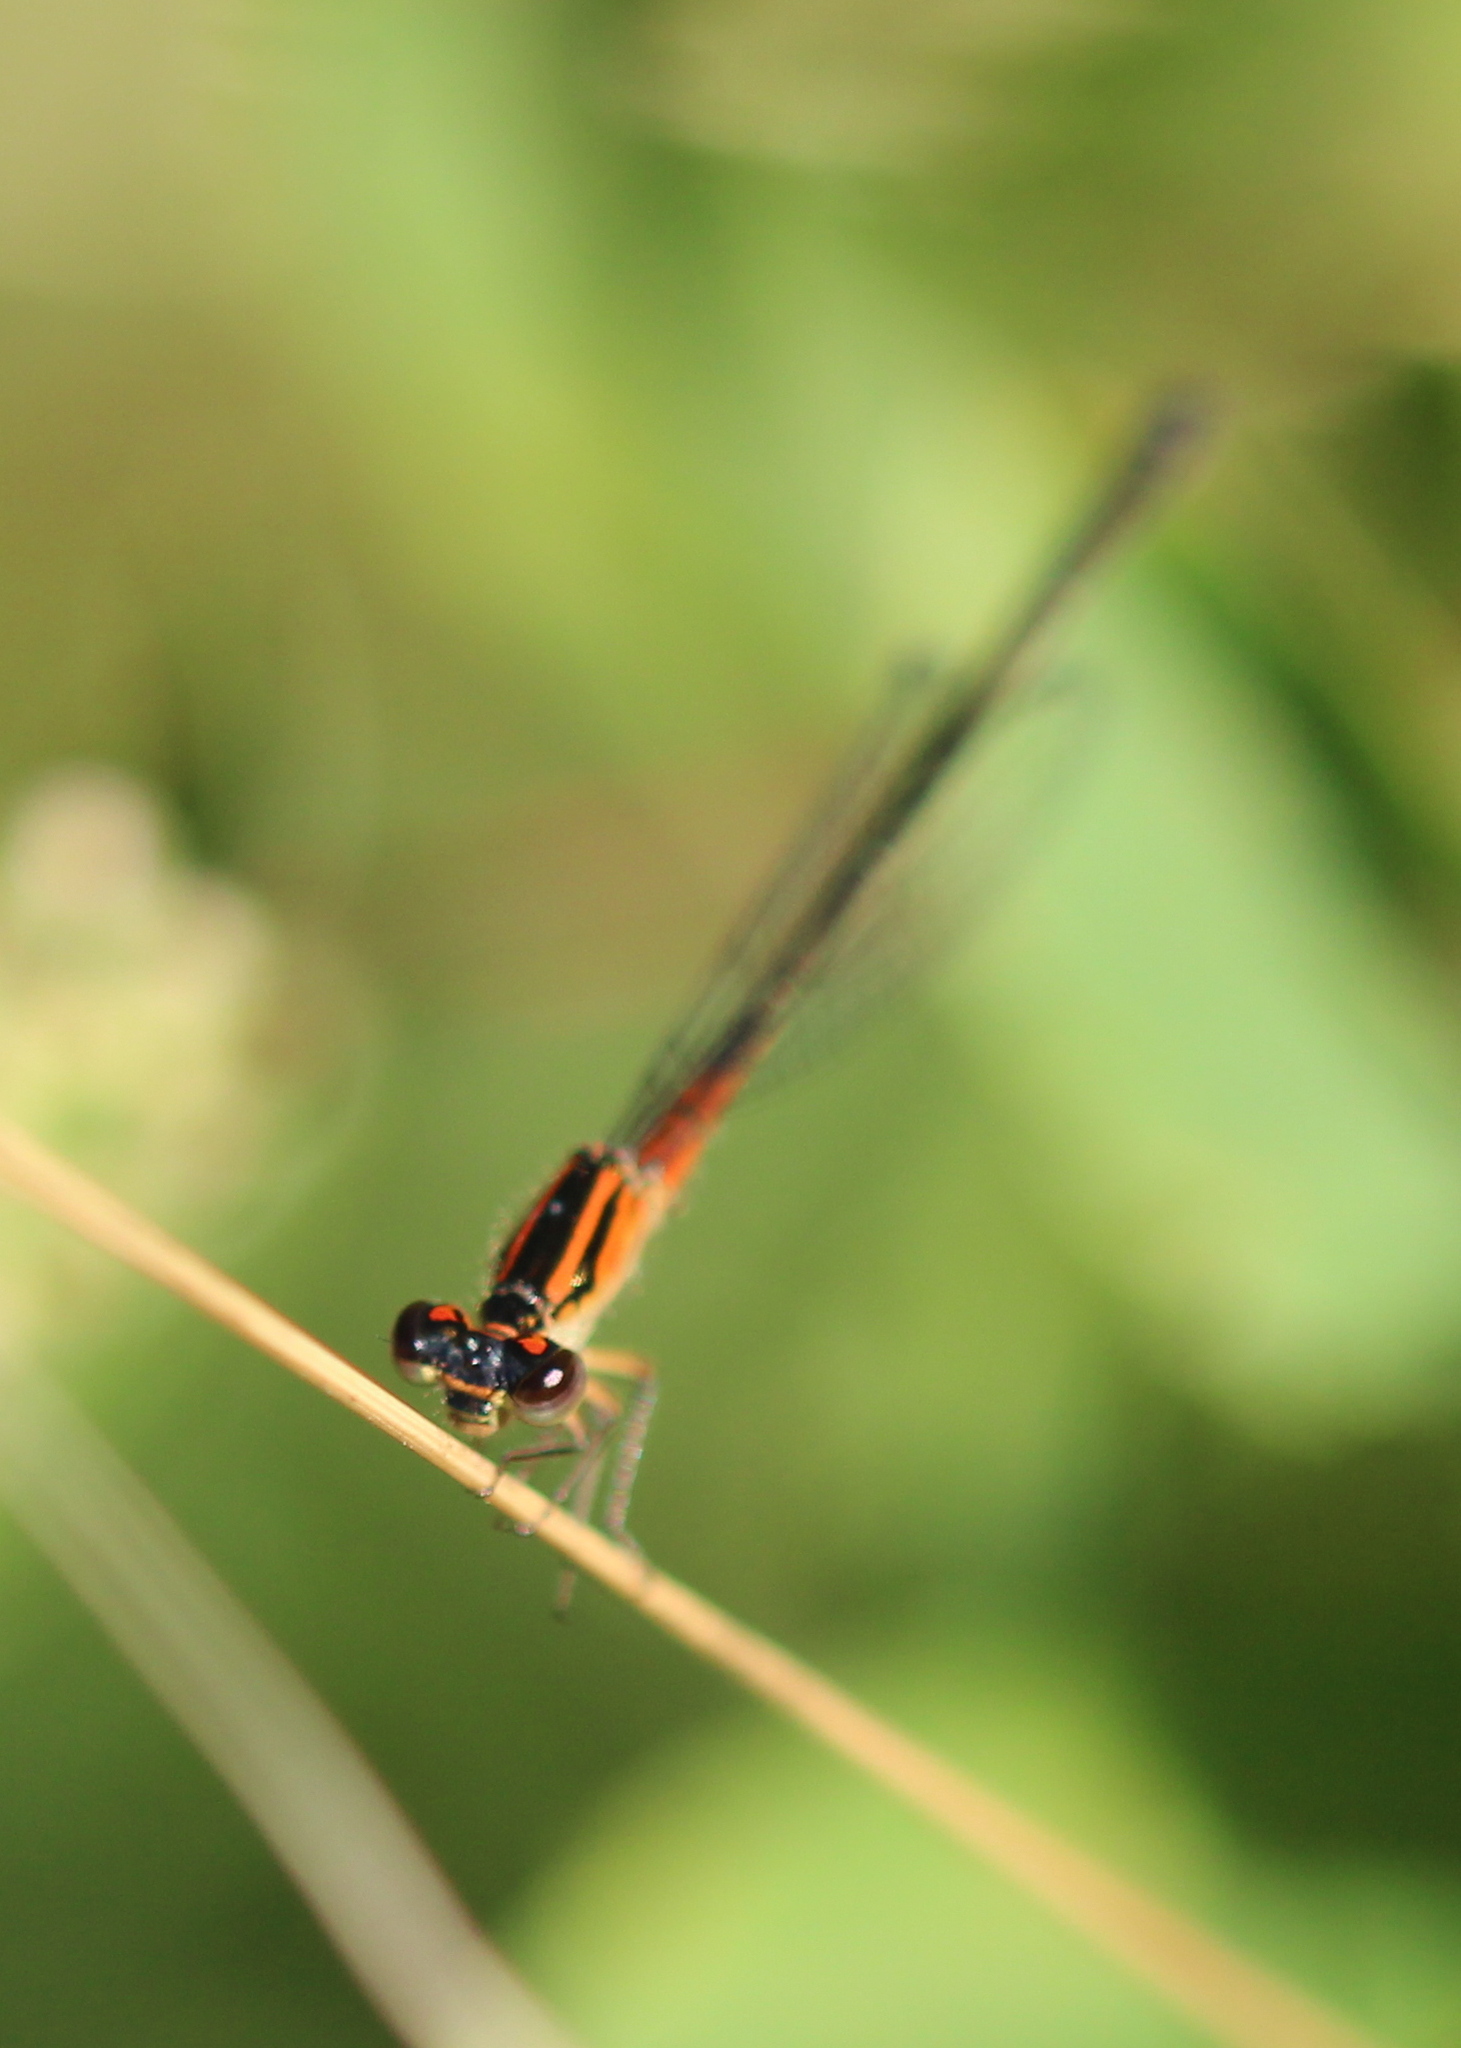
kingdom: Animalia
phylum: Arthropoda
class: Insecta
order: Odonata
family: Coenagrionidae
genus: Ischnura
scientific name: Ischnura verticalis
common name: Eastern forktail
